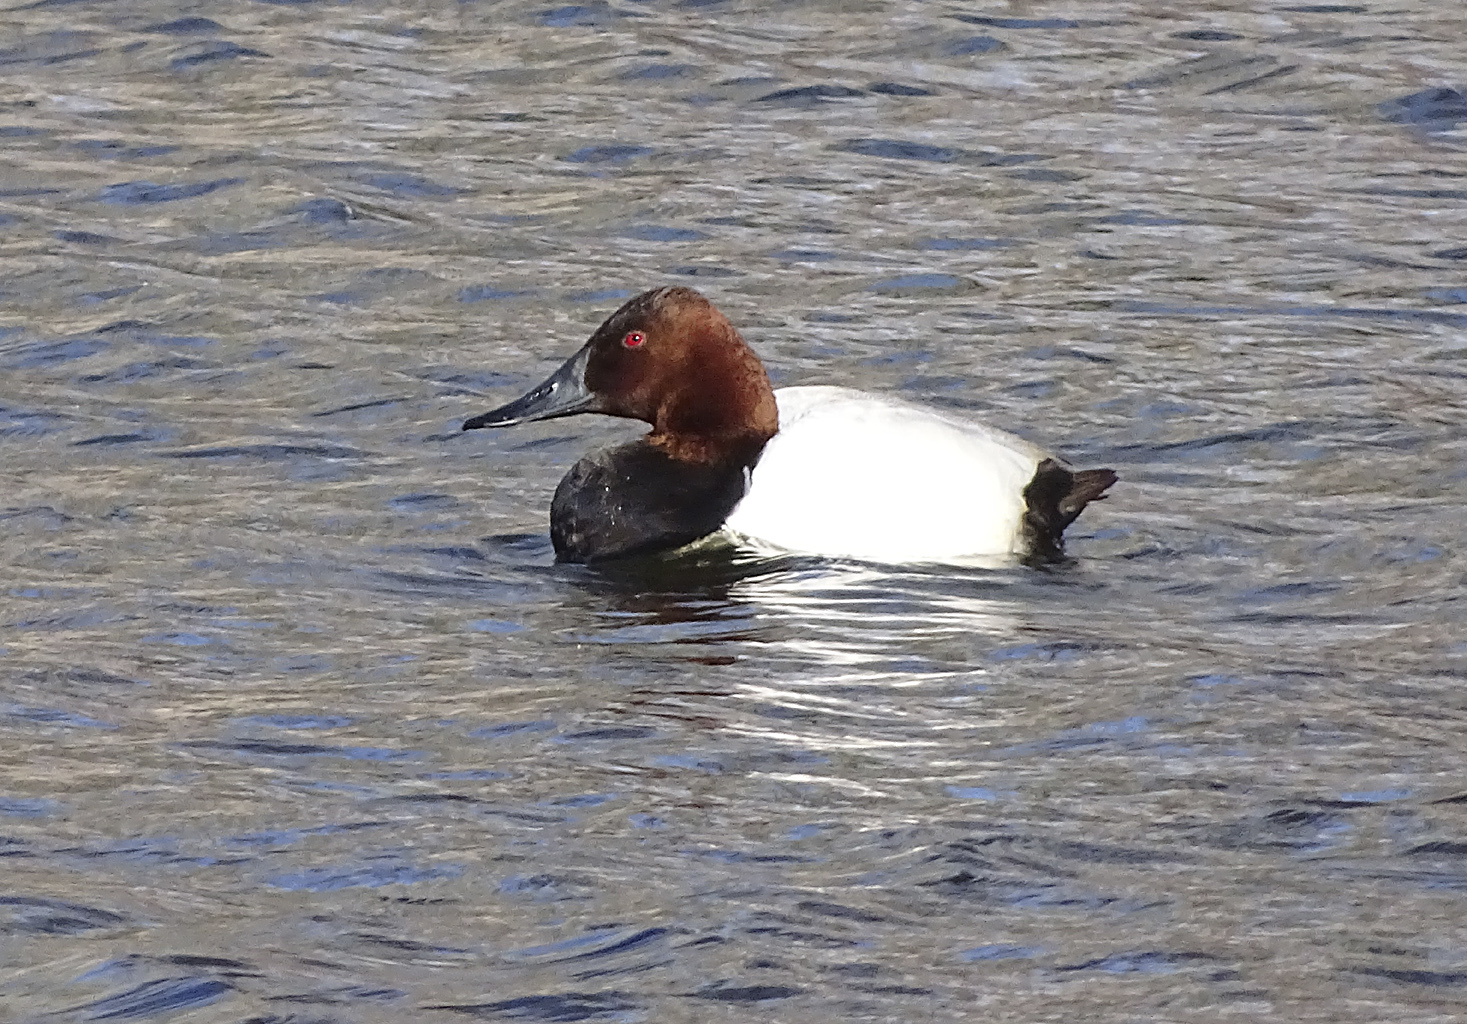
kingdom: Animalia
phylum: Chordata
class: Aves
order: Anseriformes
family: Anatidae
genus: Aythya
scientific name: Aythya valisineria
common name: Canvasback
